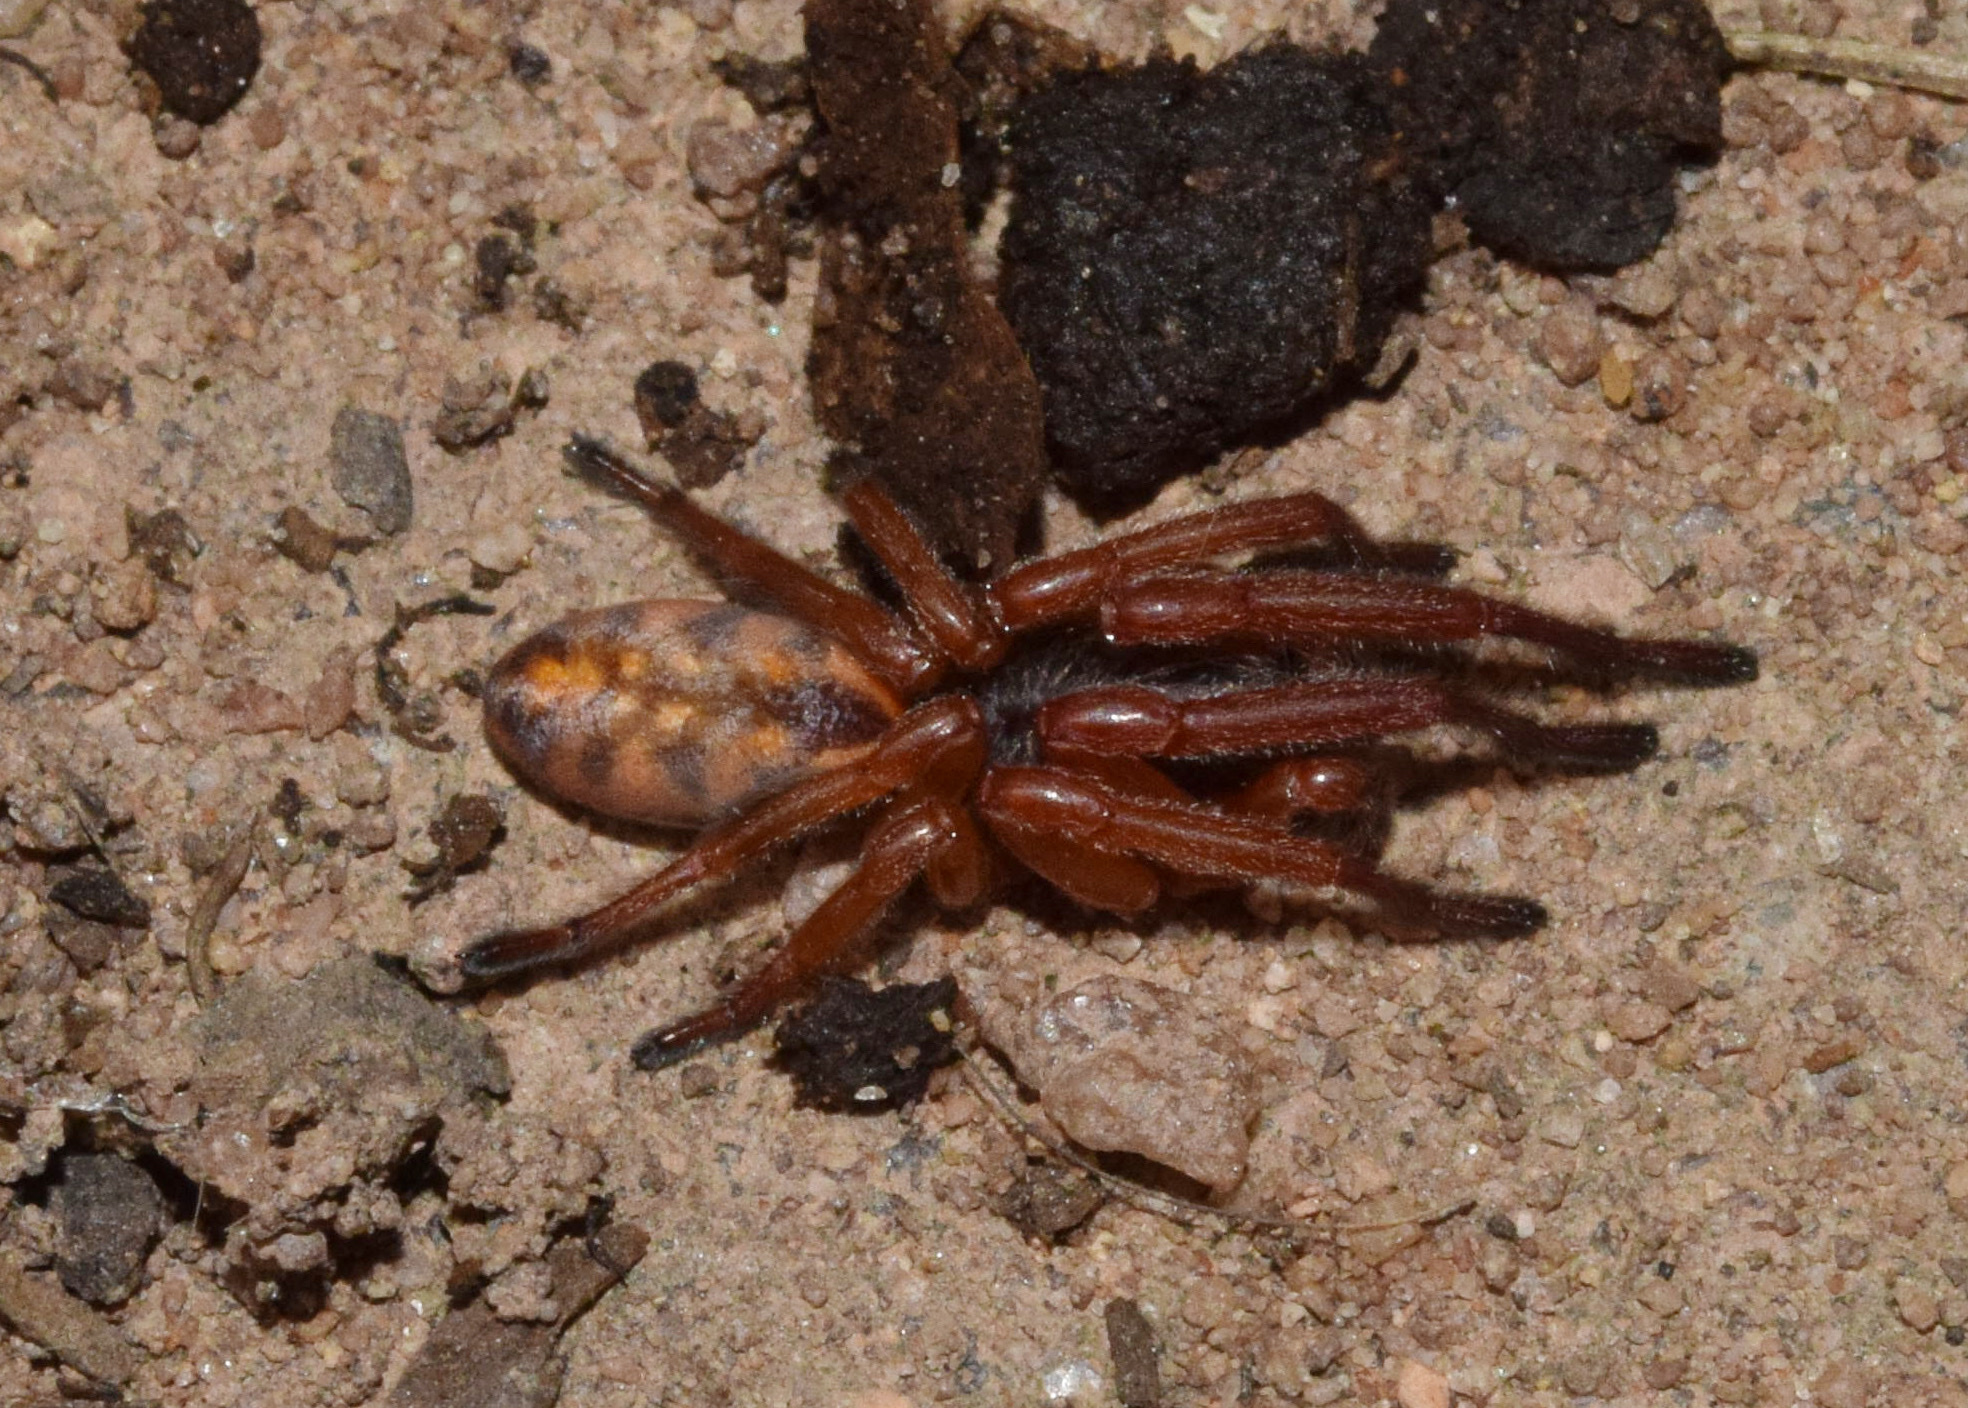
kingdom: Animalia
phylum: Arthropoda
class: Arachnida
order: Araneae
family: Zodariidae
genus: Cicynethus
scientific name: Cicynethus decoratus
